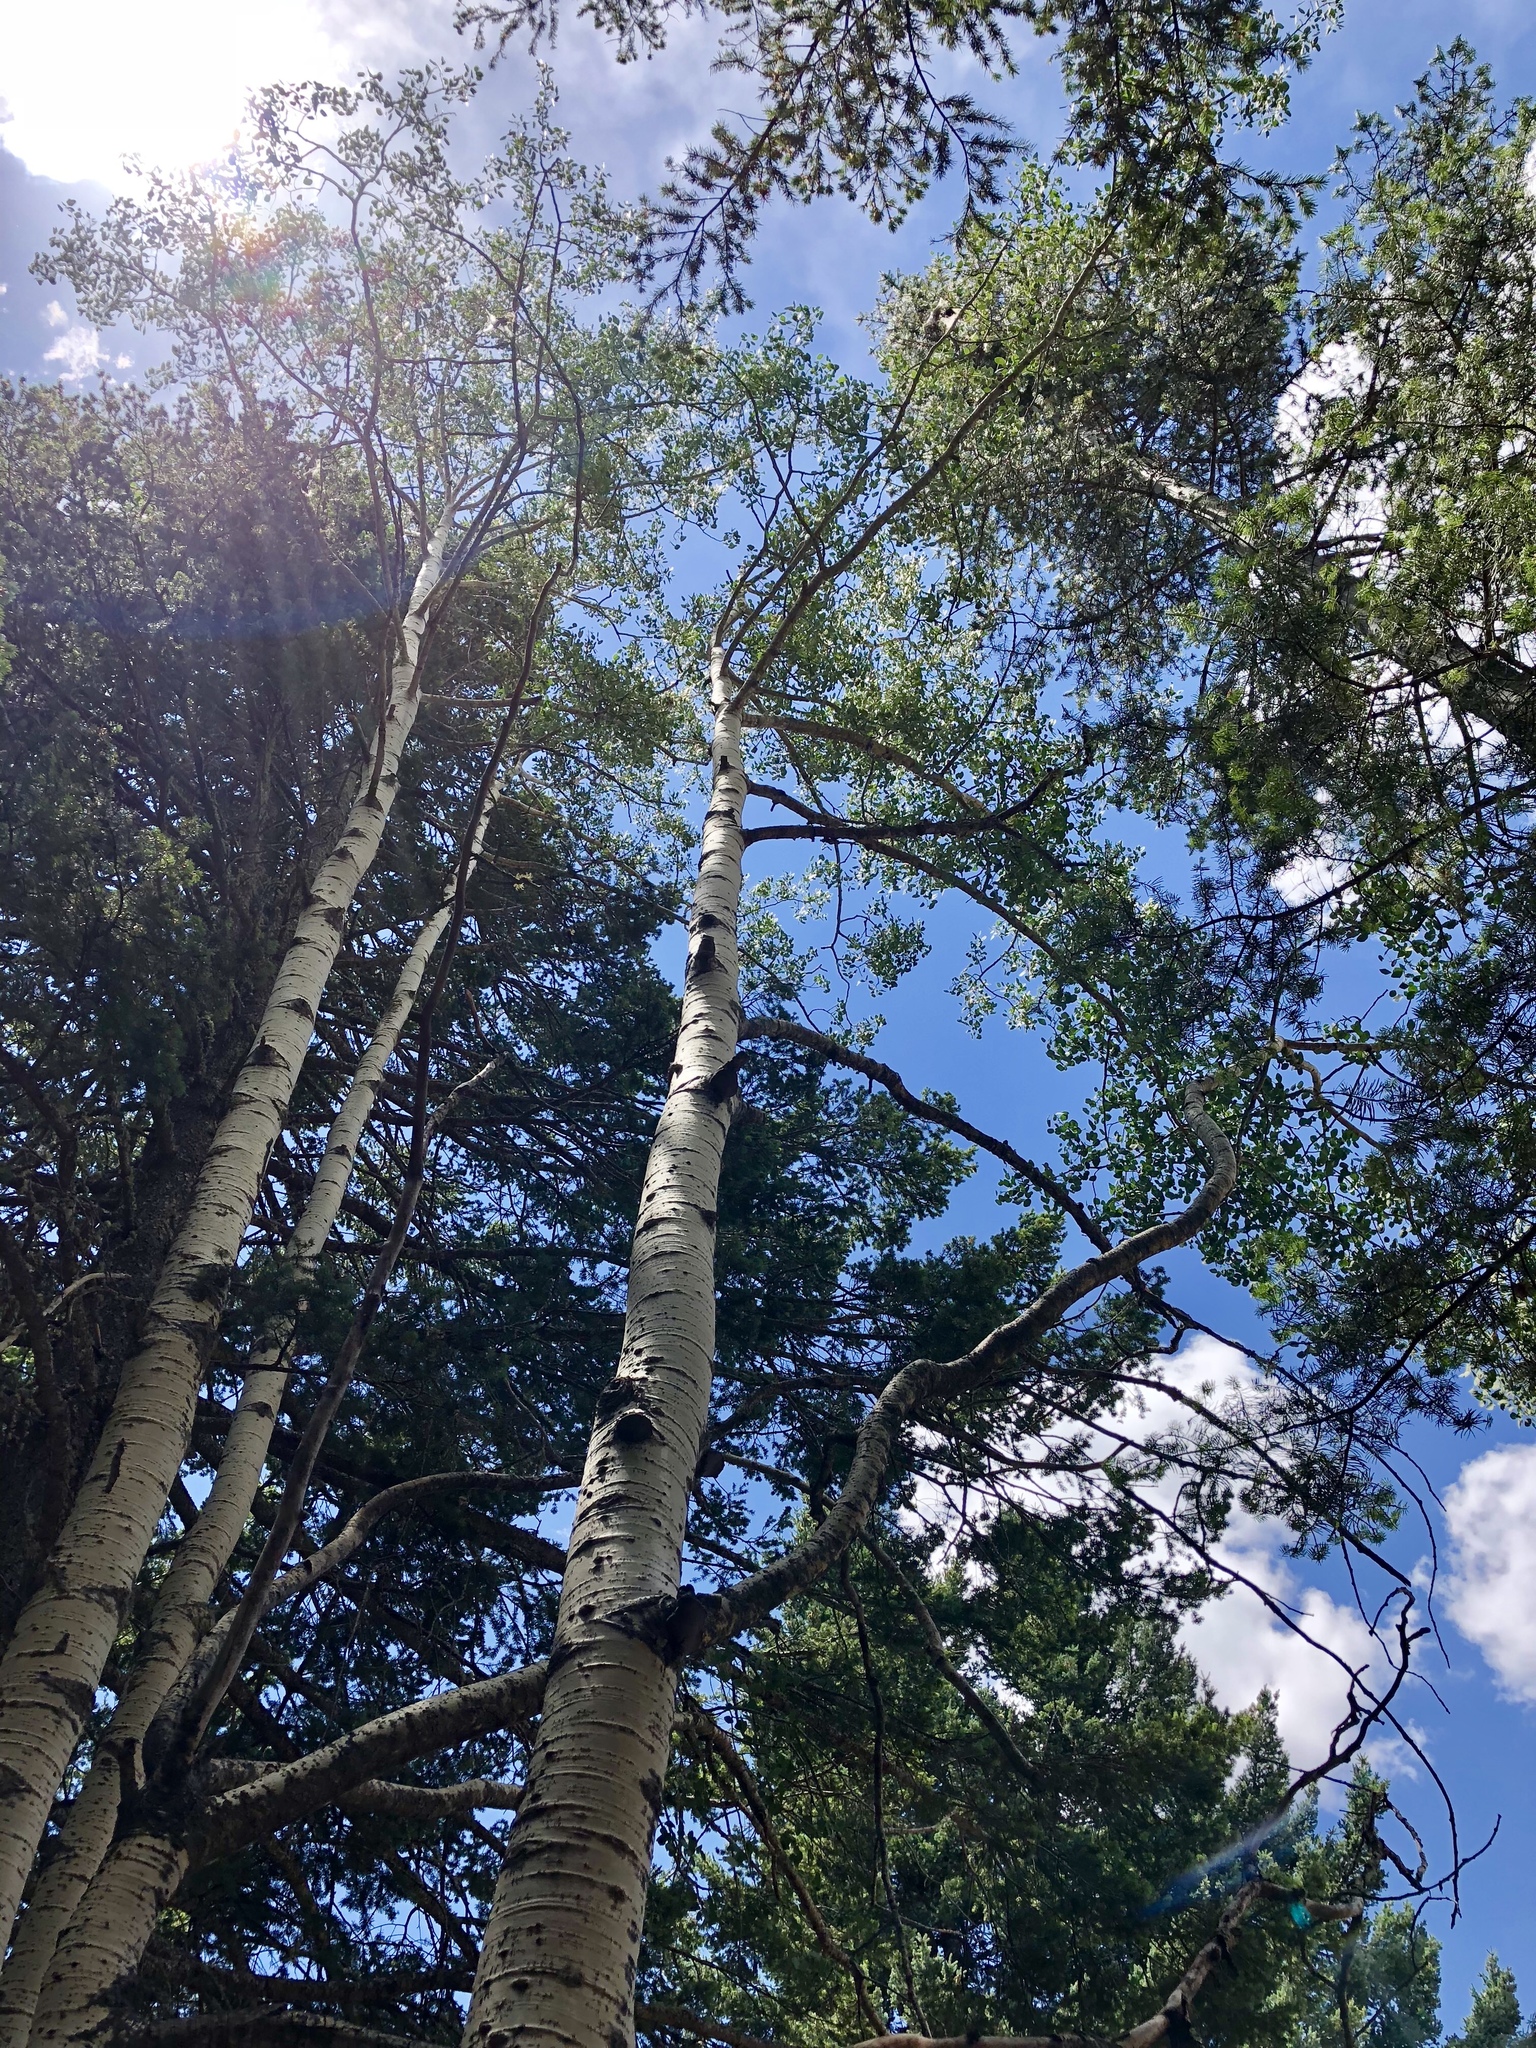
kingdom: Plantae
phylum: Tracheophyta
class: Magnoliopsida
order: Malpighiales
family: Salicaceae
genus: Populus
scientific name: Populus tremuloides
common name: Quaking aspen
